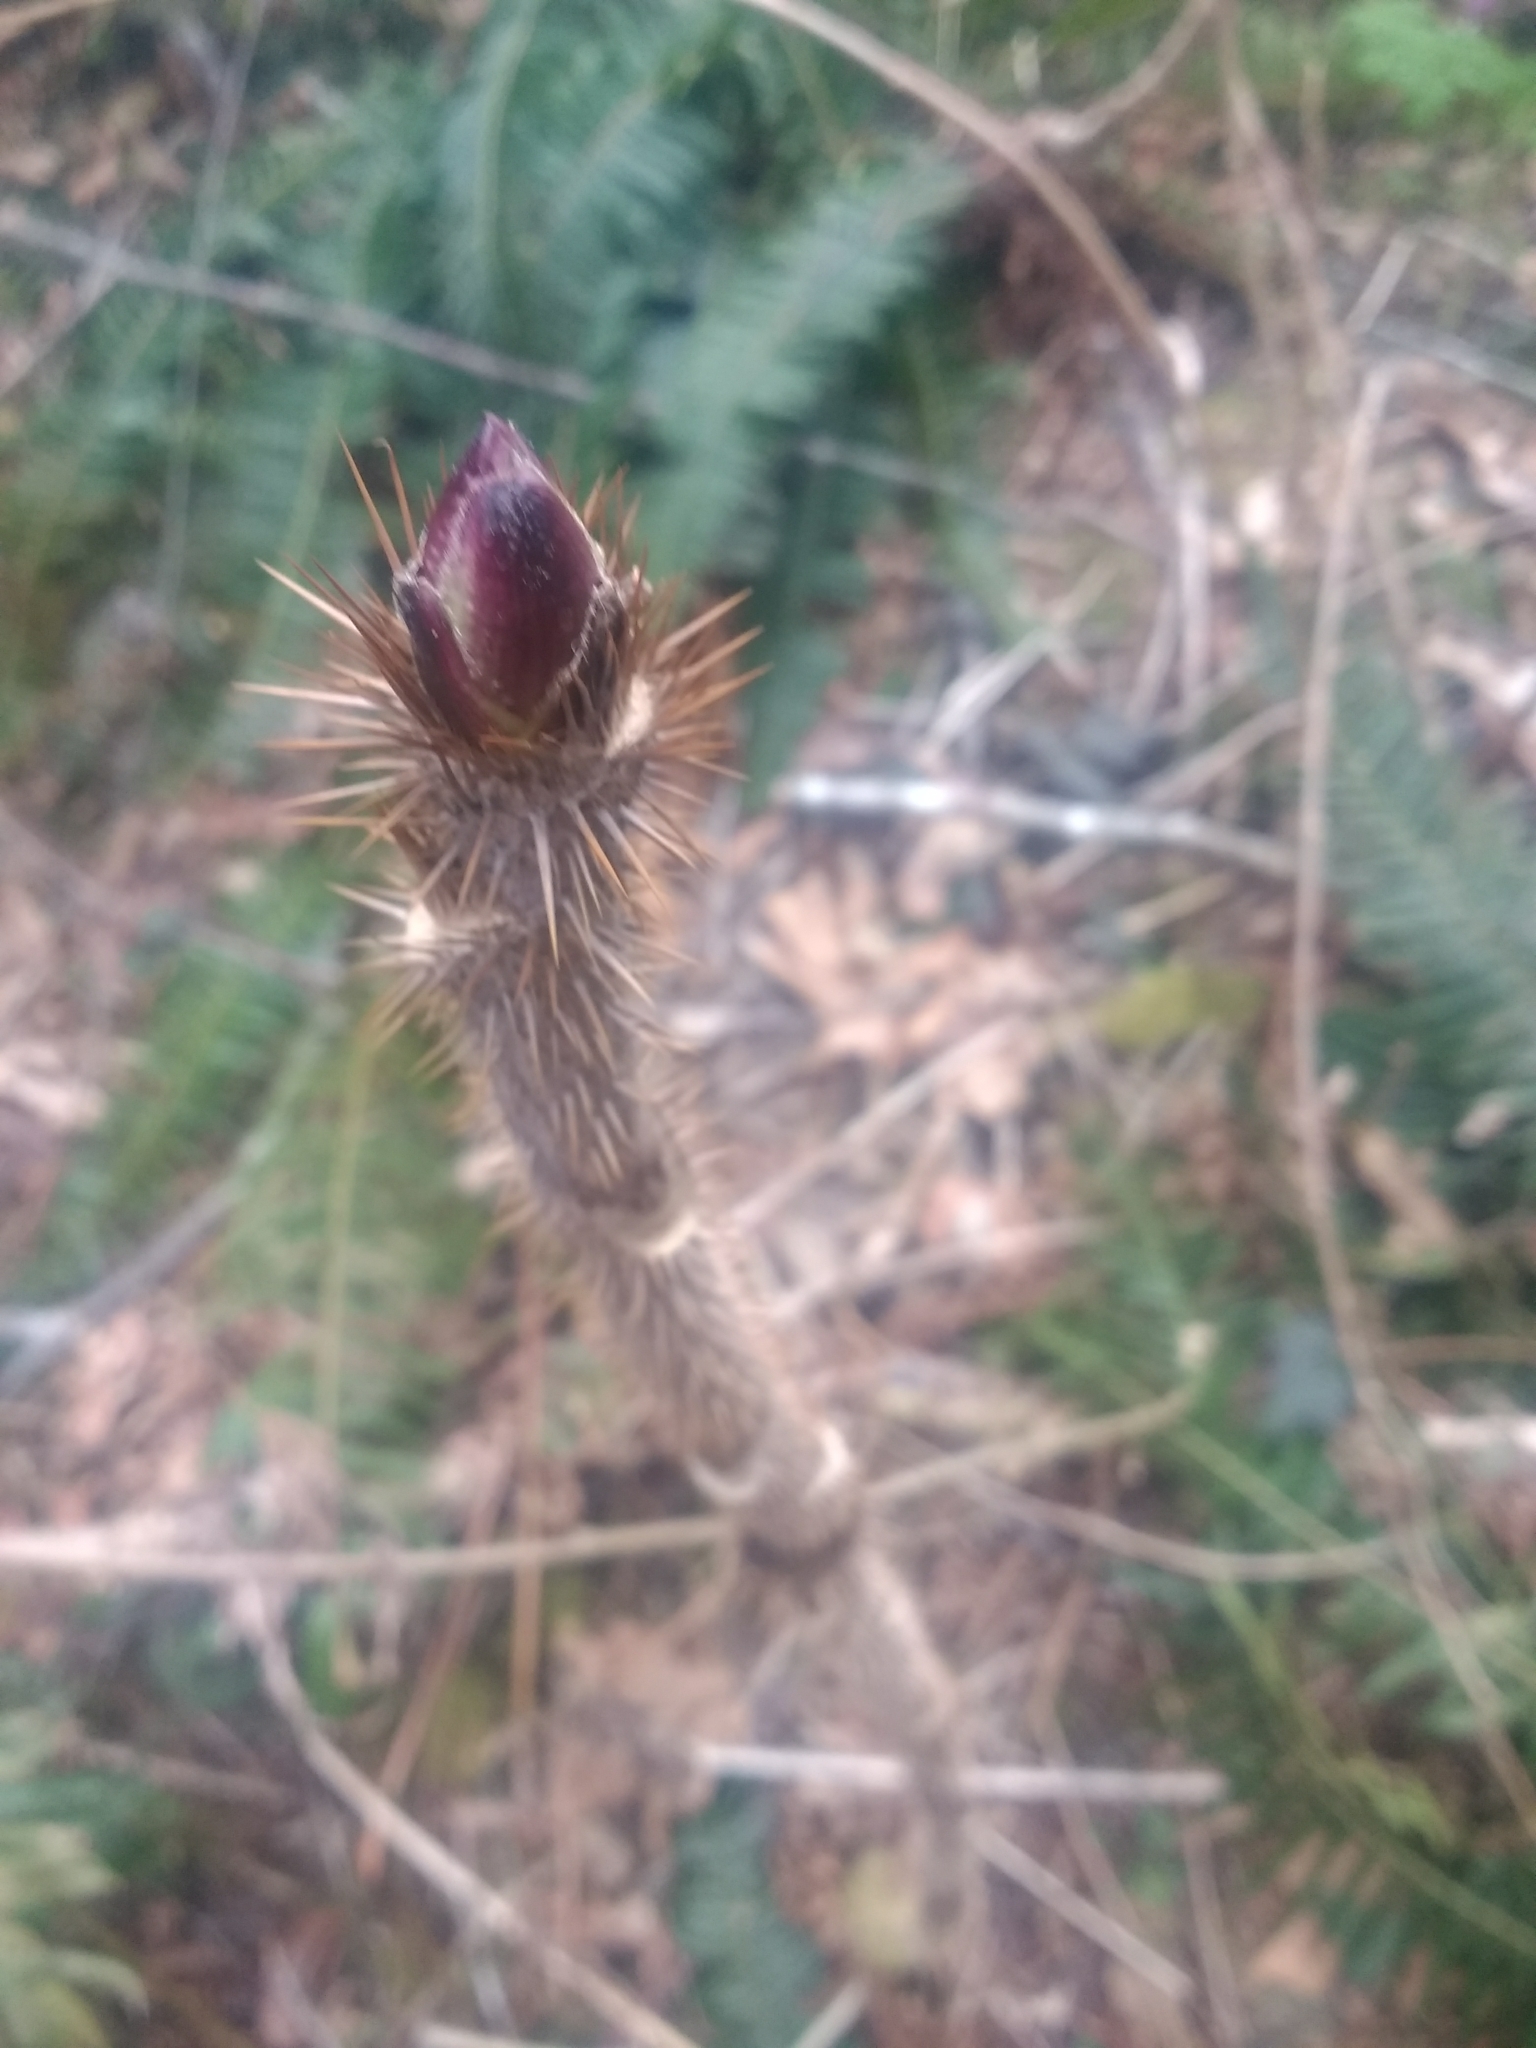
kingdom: Plantae
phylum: Tracheophyta
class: Magnoliopsida
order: Apiales
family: Araliaceae
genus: Oplopanax
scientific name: Oplopanax horridus
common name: Devil's walking-stick
